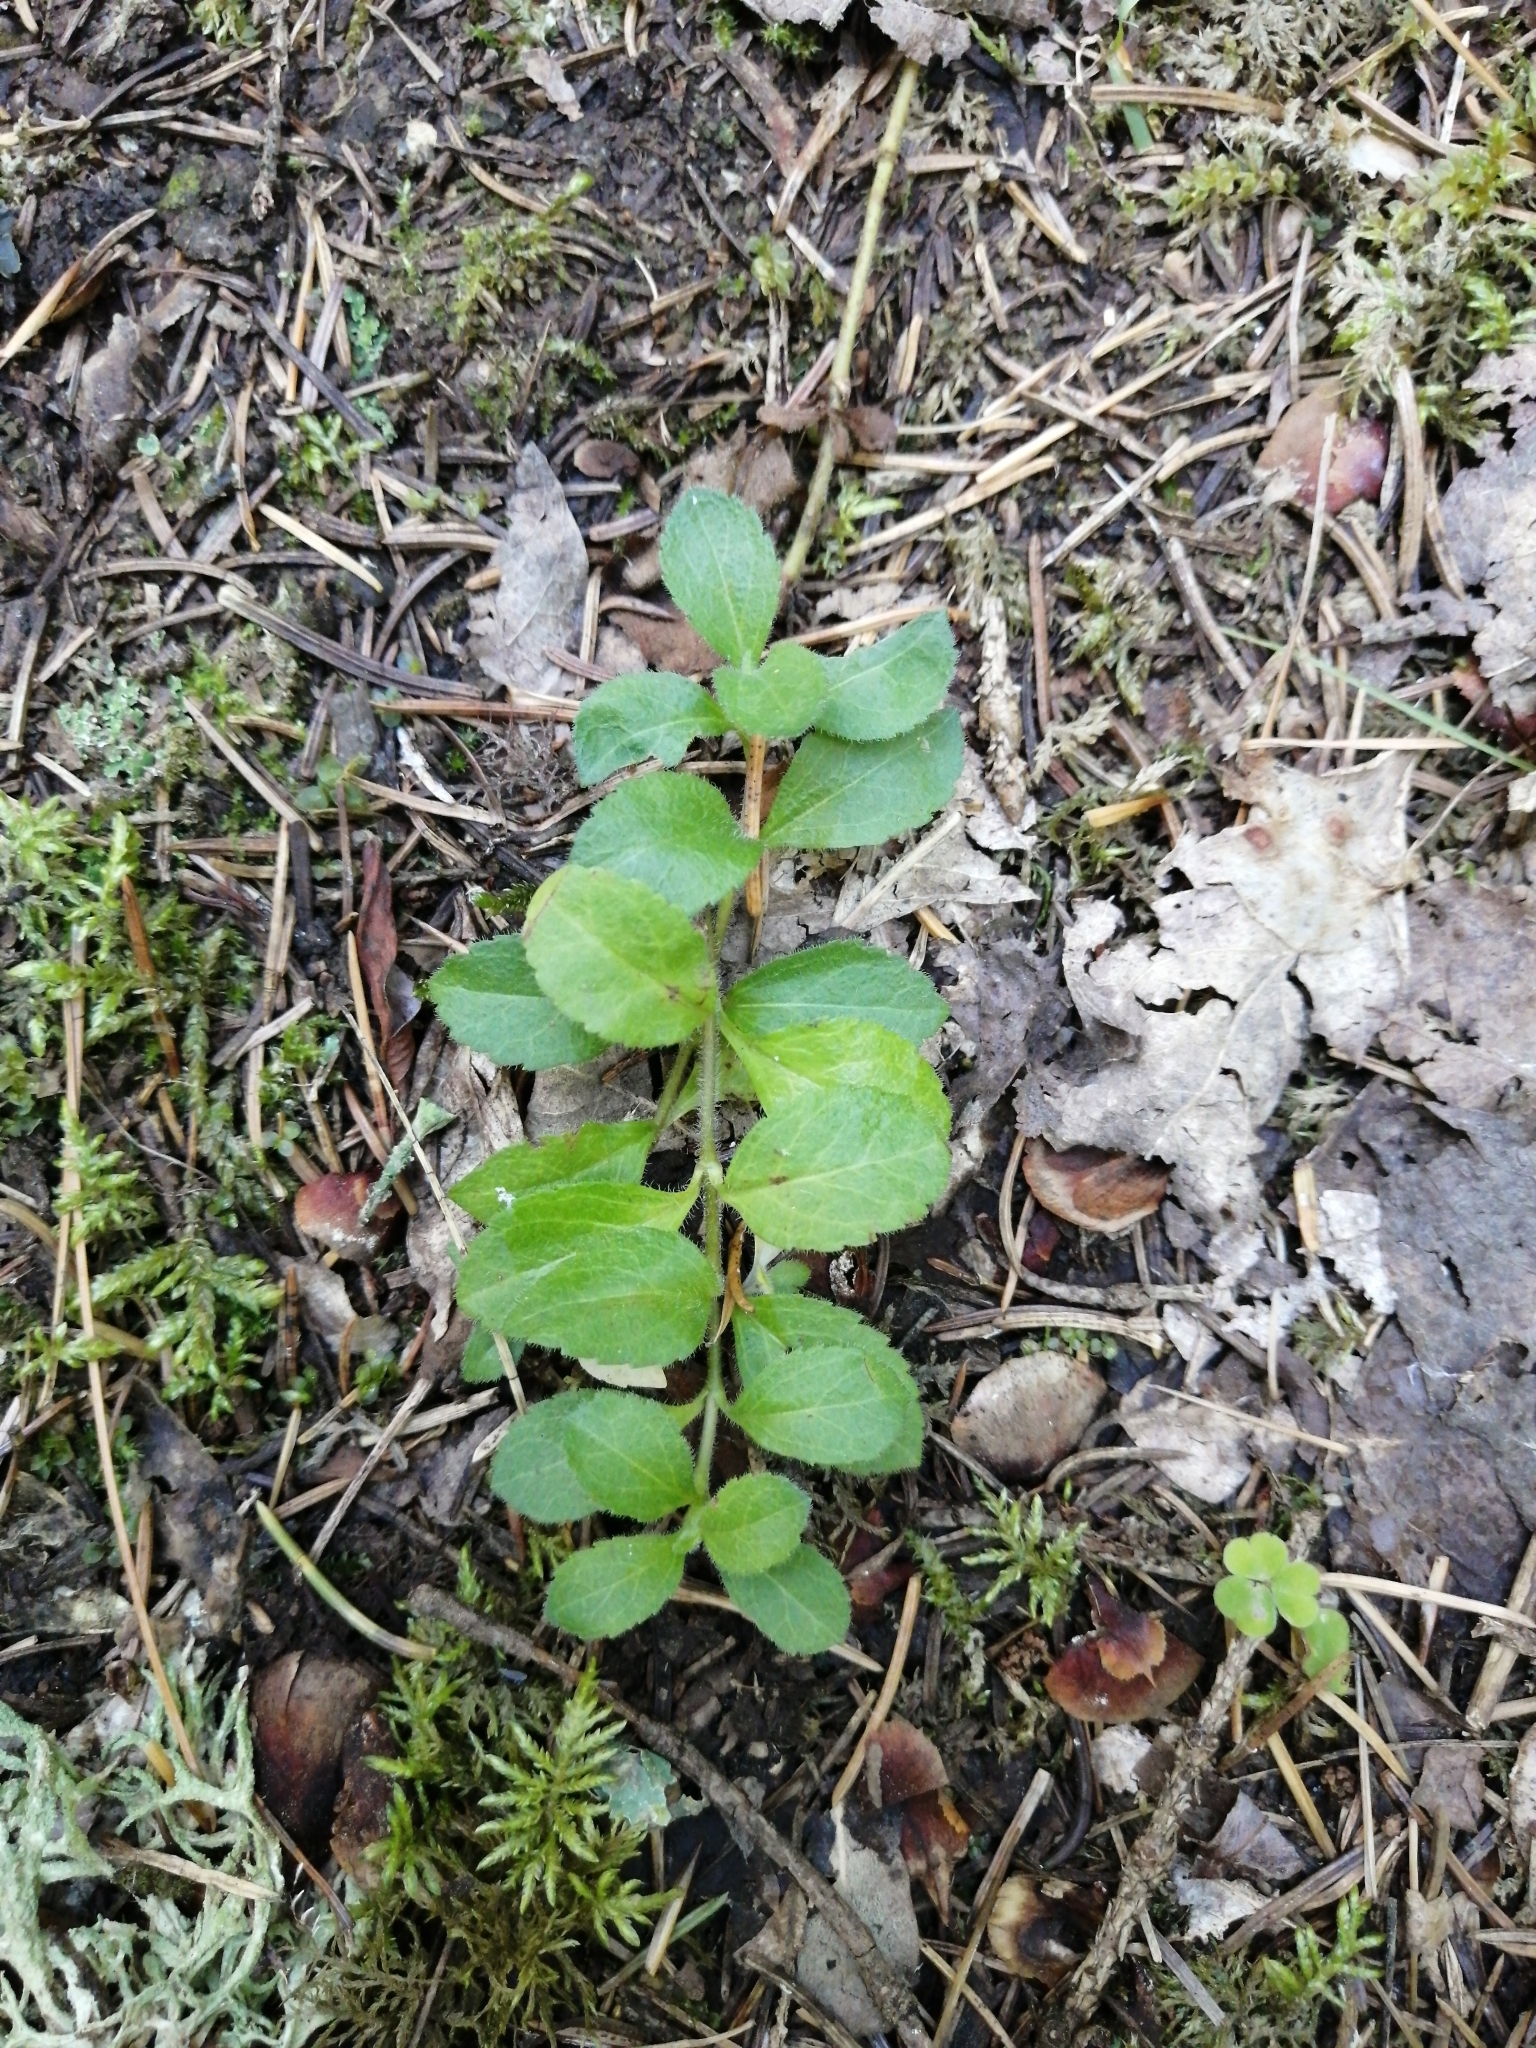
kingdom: Plantae
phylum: Tracheophyta
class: Magnoliopsida
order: Lamiales
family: Plantaginaceae
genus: Veronica
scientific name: Veronica officinalis
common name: Common speedwell
